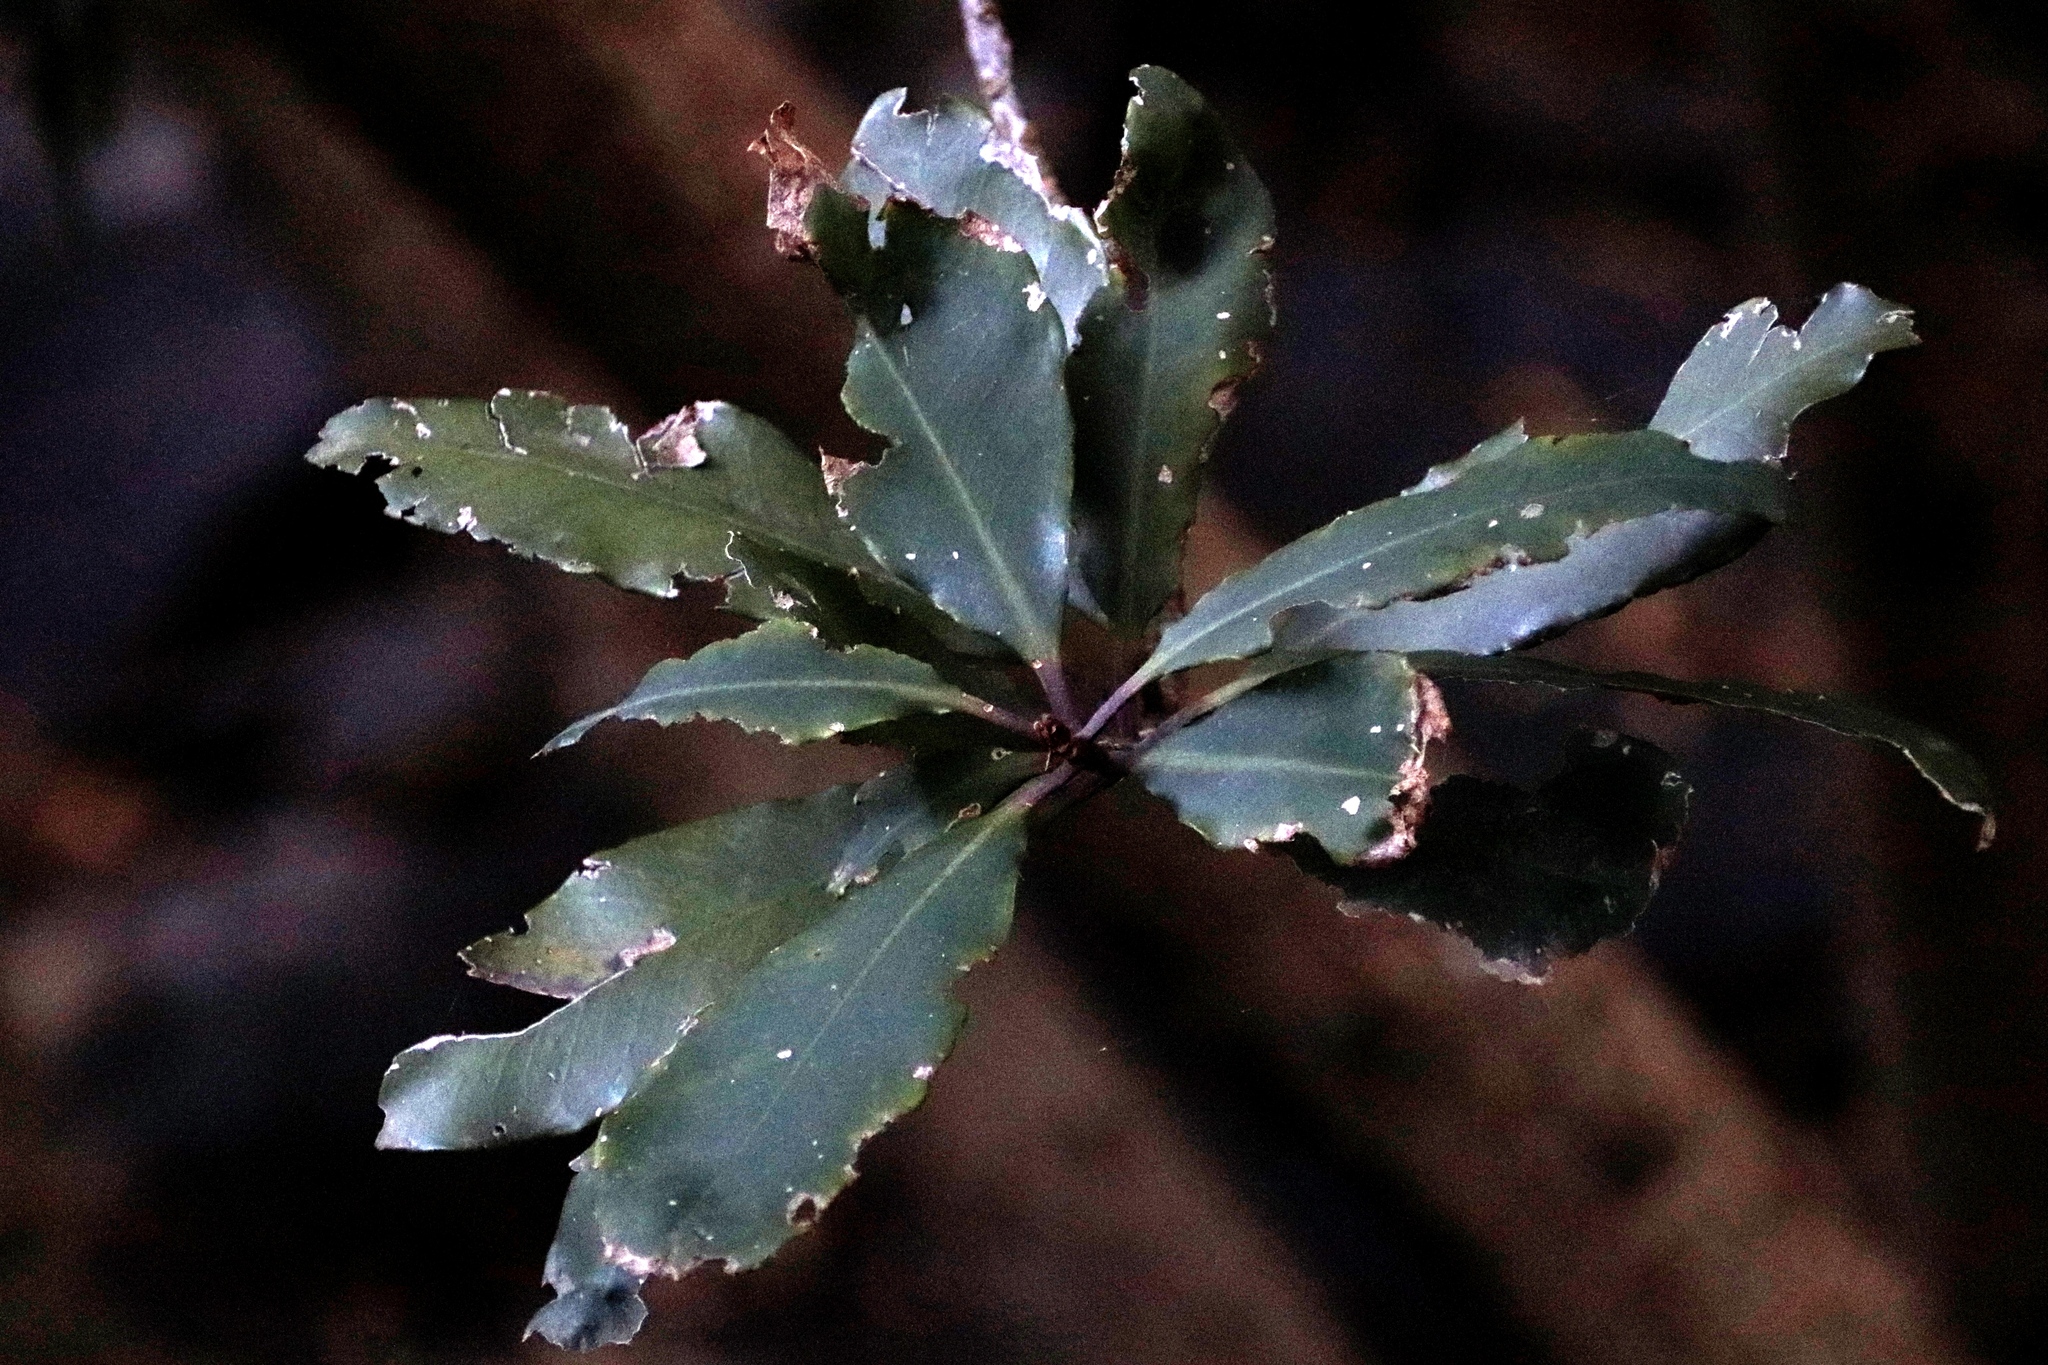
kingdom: Plantae
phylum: Tracheophyta
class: Magnoliopsida
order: Ericales
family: Primulaceae
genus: Myrsine
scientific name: Myrsine melanophloeos
